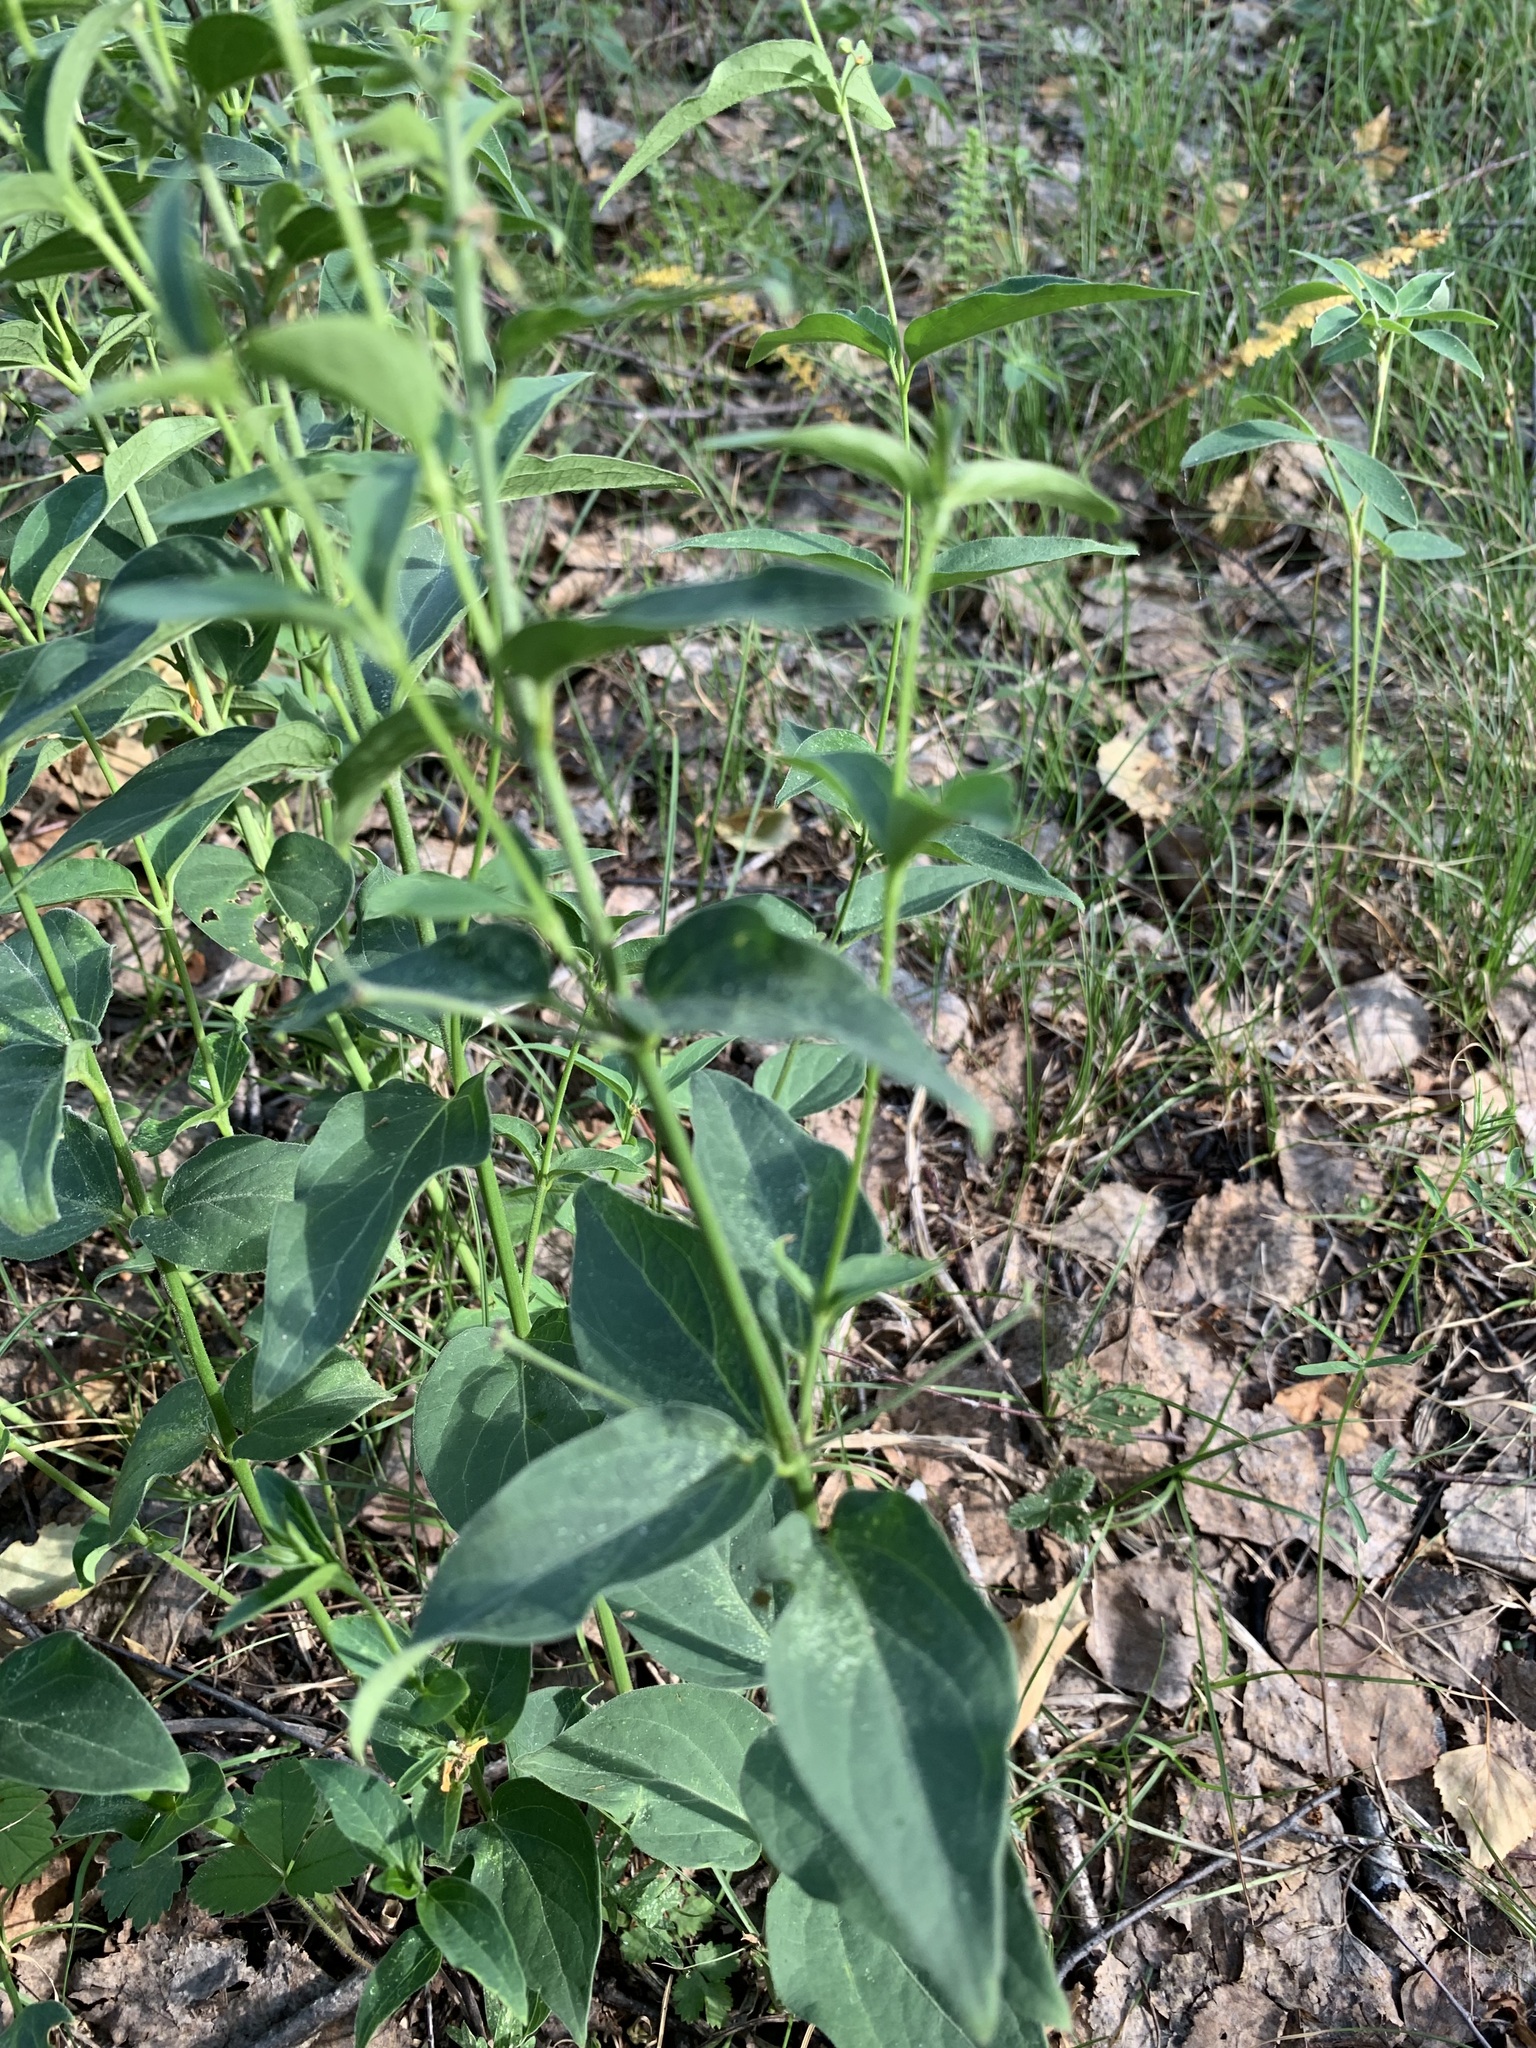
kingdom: Plantae
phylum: Tracheophyta
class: Magnoliopsida
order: Gentianales
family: Apocynaceae
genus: Vincetoxicum
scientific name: Vincetoxicum hirundinaria
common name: White swallowwort
